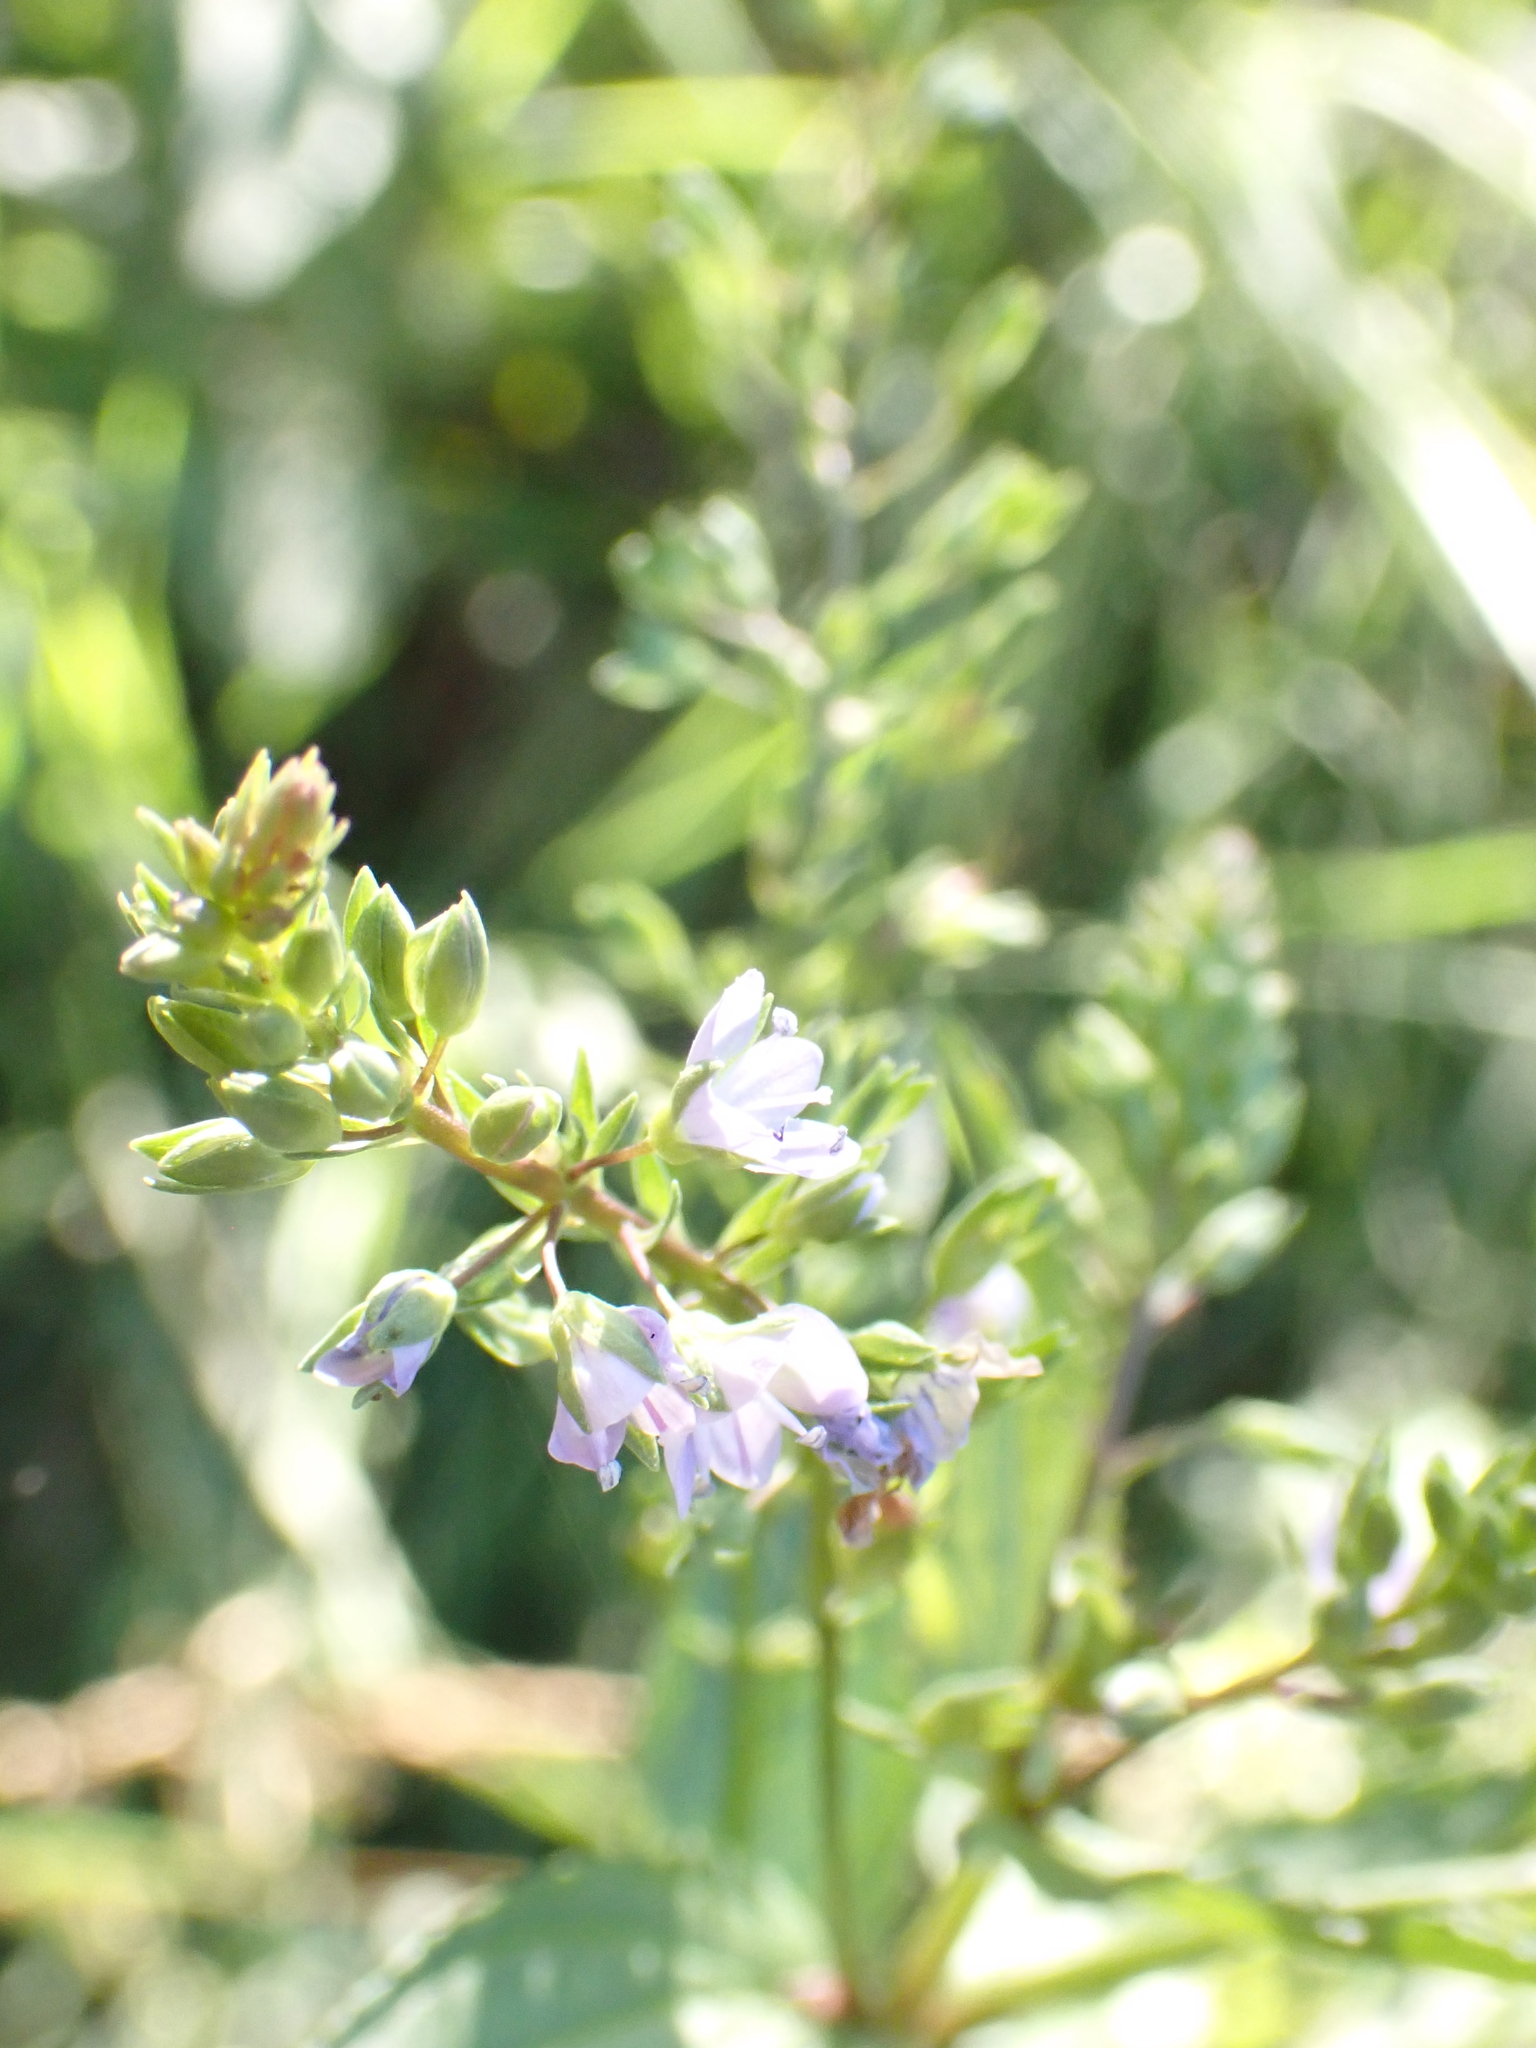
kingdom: Plantae
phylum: Tracheophyta
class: Magnoliopsida
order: Lamiales
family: Plantaginaceae
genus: Veronica
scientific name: Veronica anagallis-aquatica
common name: Water speedwell
